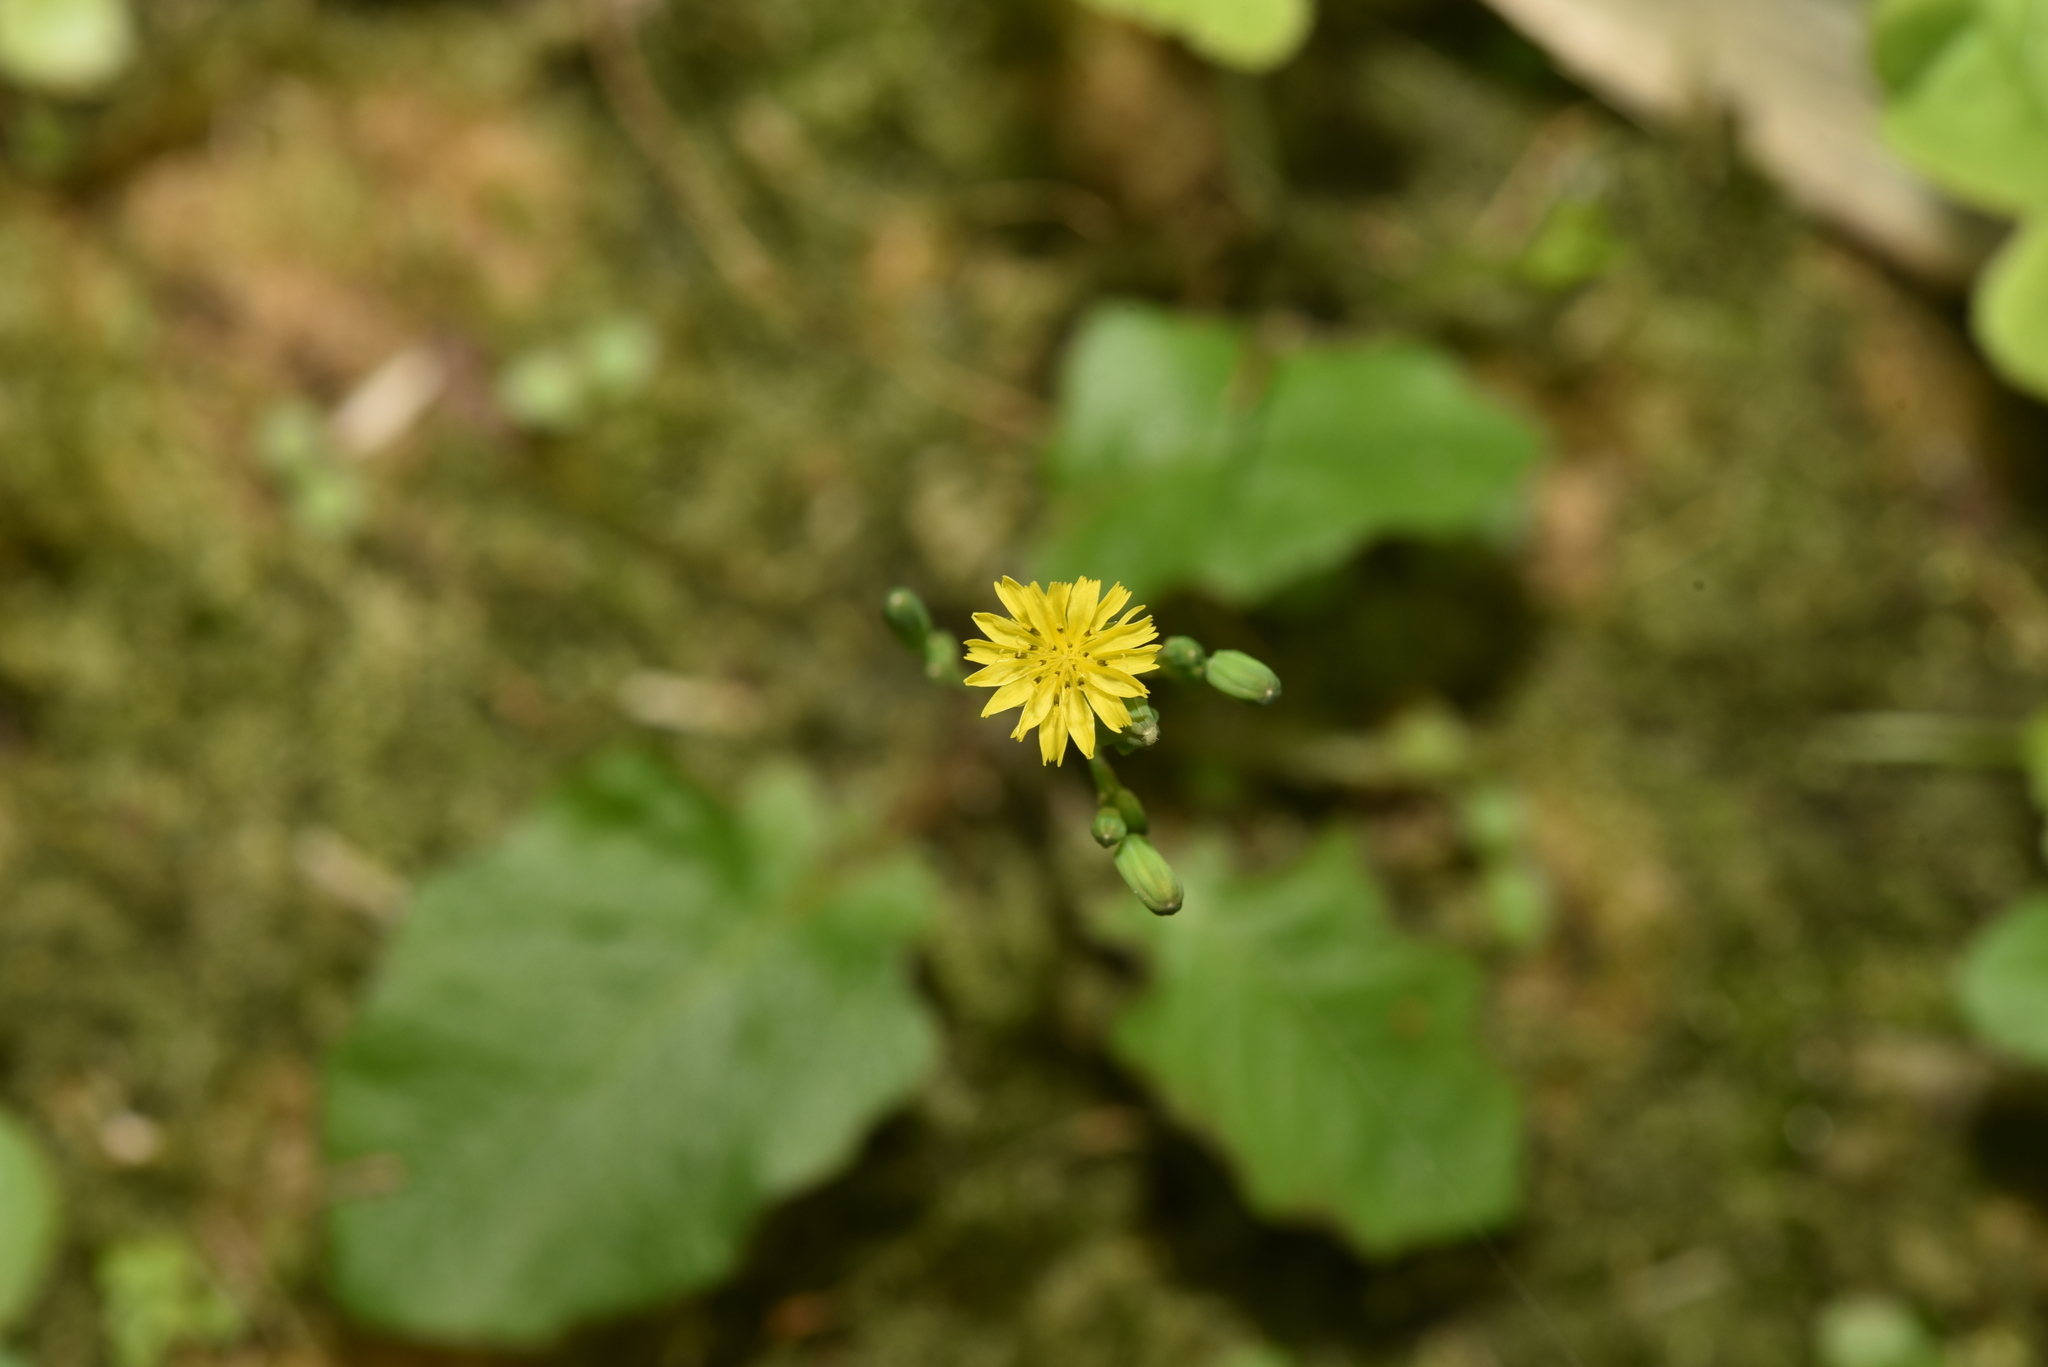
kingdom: Plantae
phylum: Tracheophyta
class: Magnoliopsida
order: Asterales
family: Asteraceae
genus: Youngia
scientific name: Youngia japonica
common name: Oriental false hawksbeard
